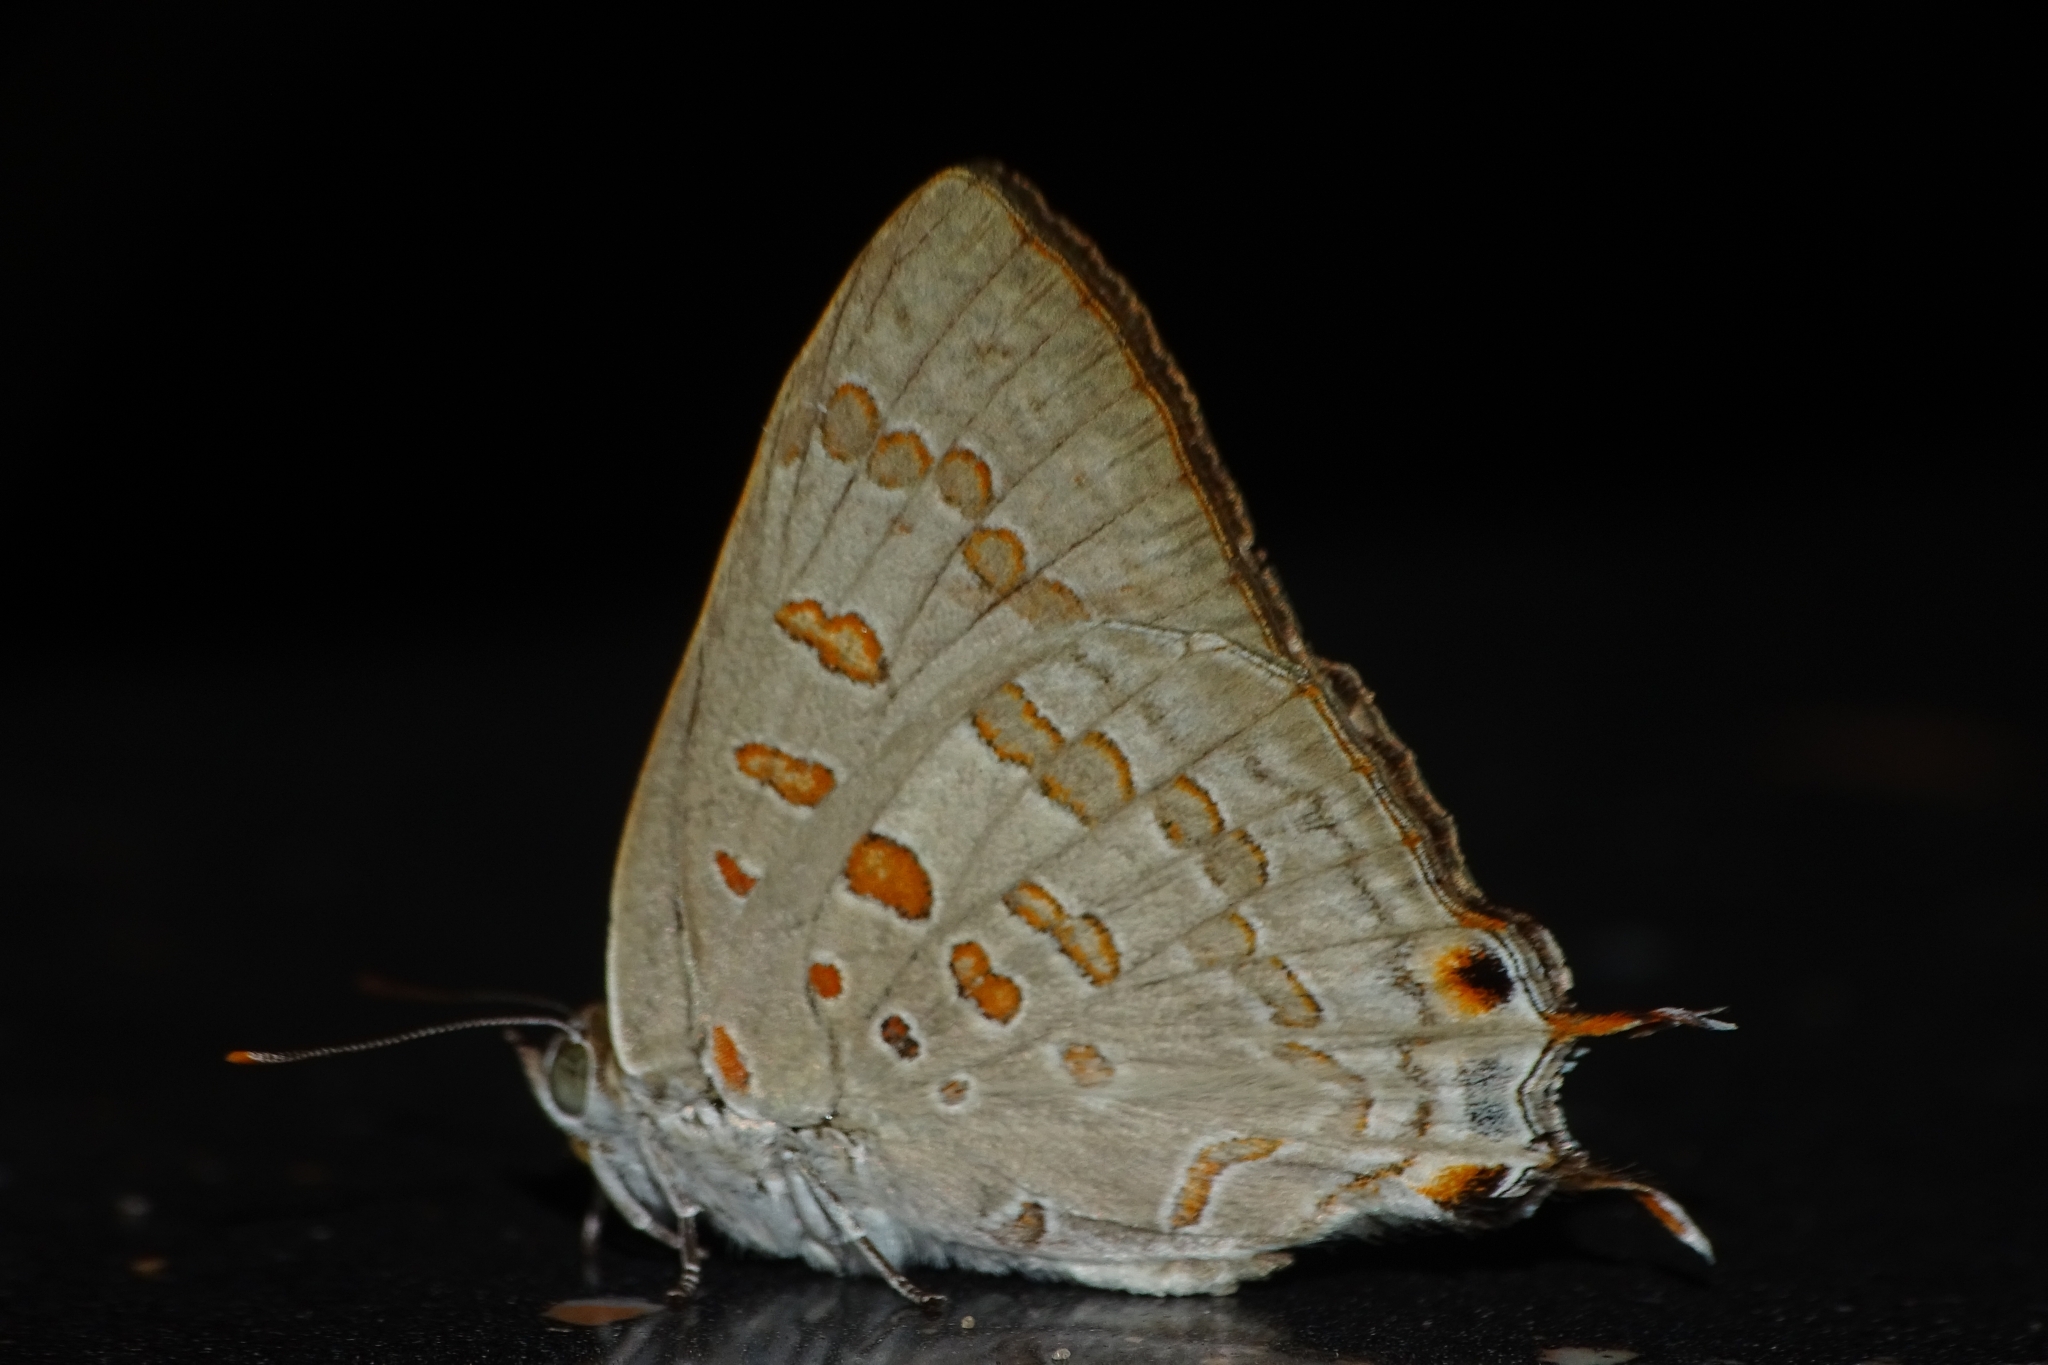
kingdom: Animalia
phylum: Arthropoda
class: Insecta
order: Lepidoptera
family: Lycaenidae
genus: Zesius
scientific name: Zesius chrysomallus
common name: Redspot
